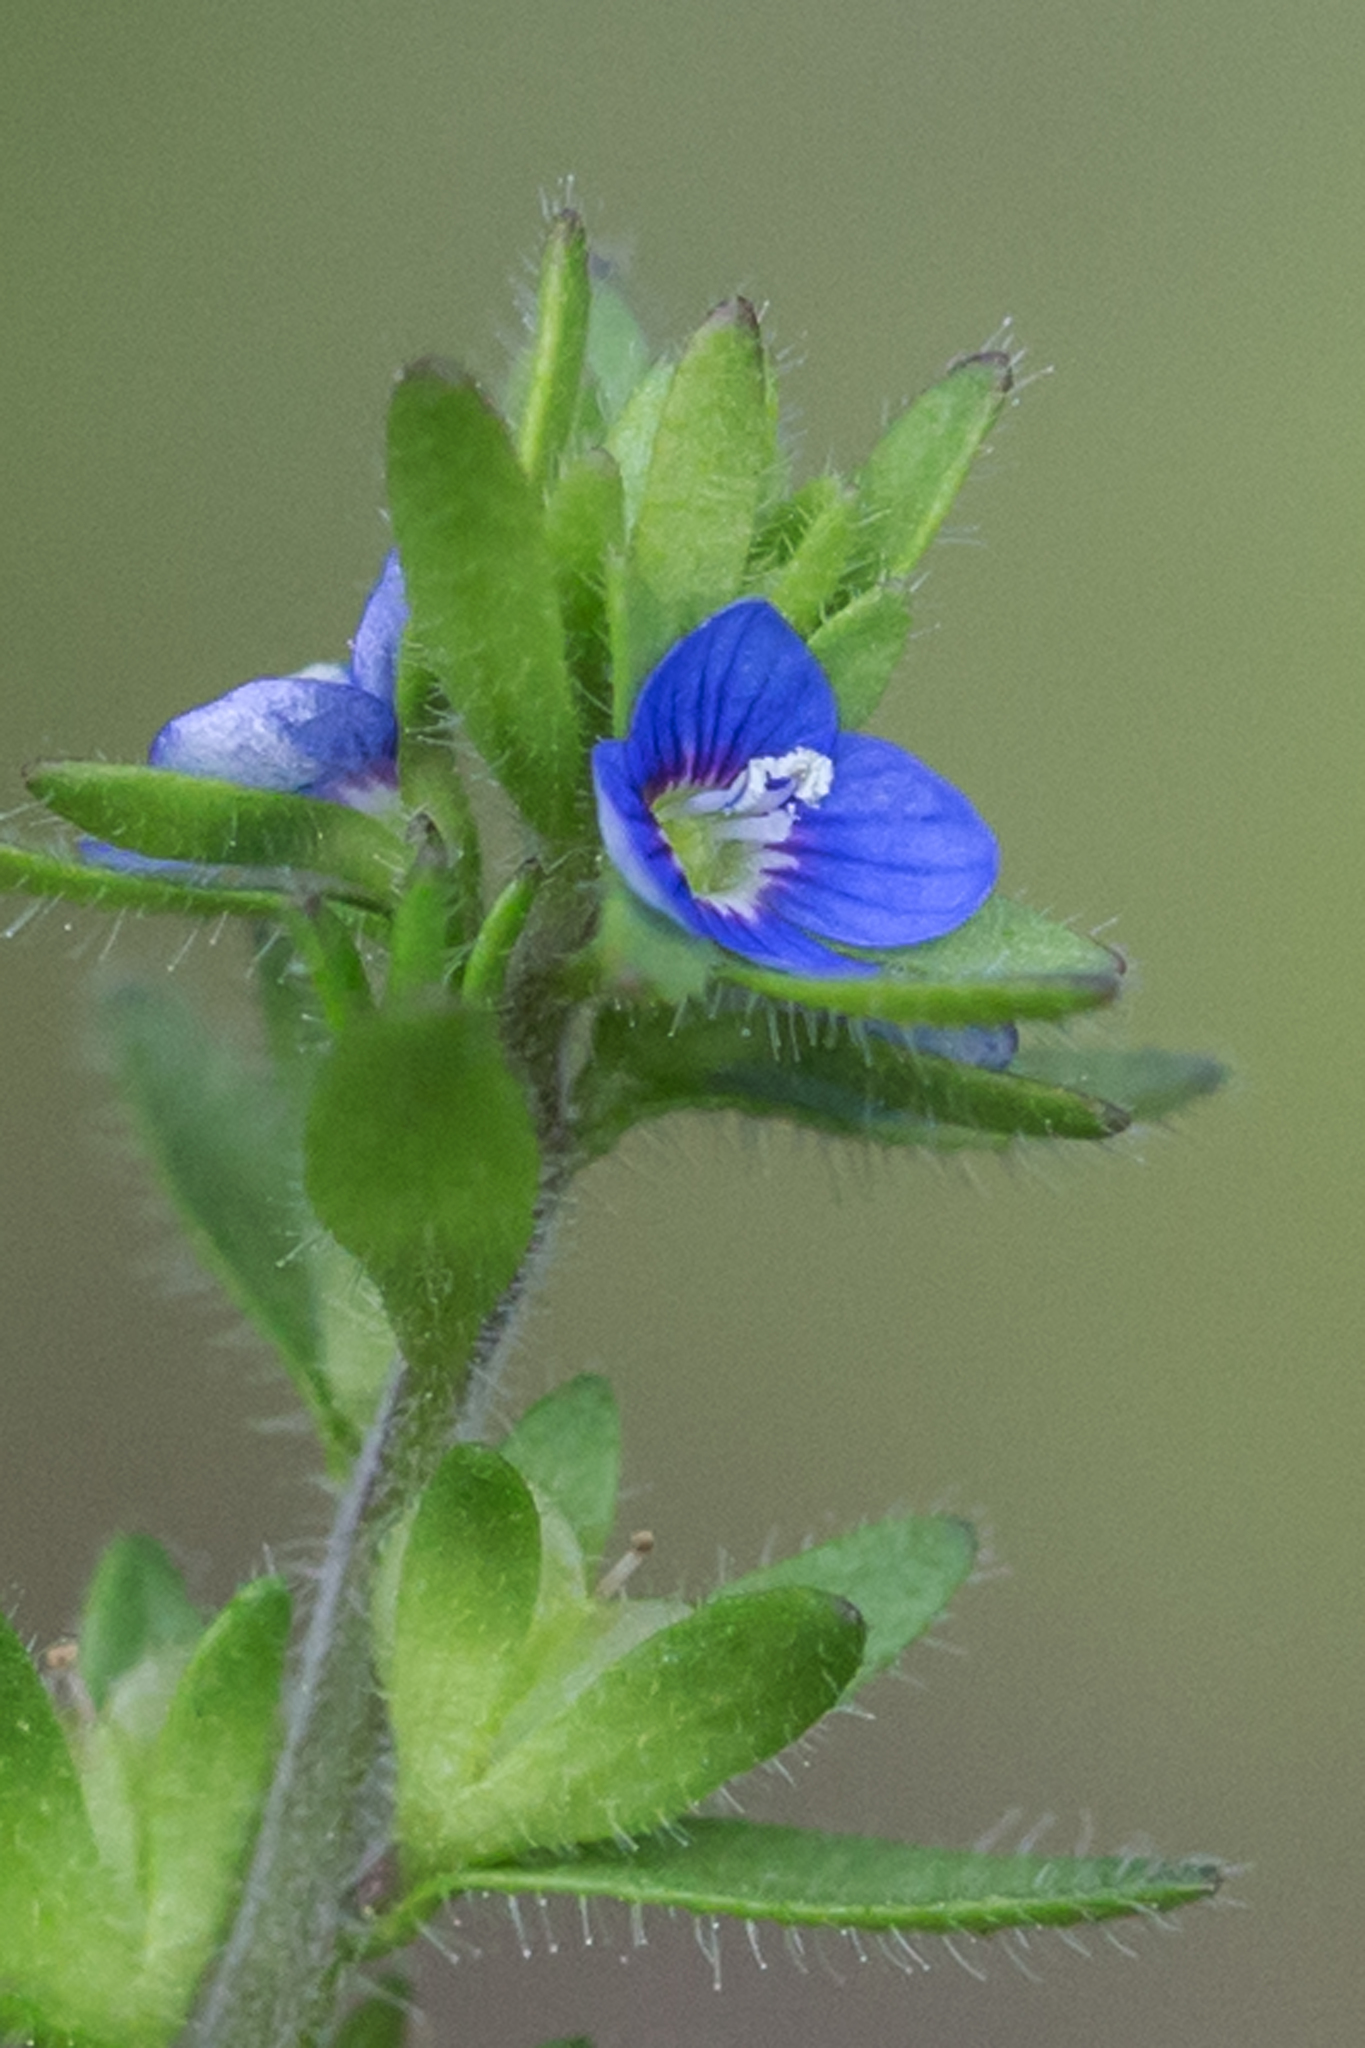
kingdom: Plantae
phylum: Tracheophyta
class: Magnoliopsida
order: Lamiales
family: Plantaginaceae
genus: Veronica
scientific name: Veronica arvensis
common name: Corn speedwell
